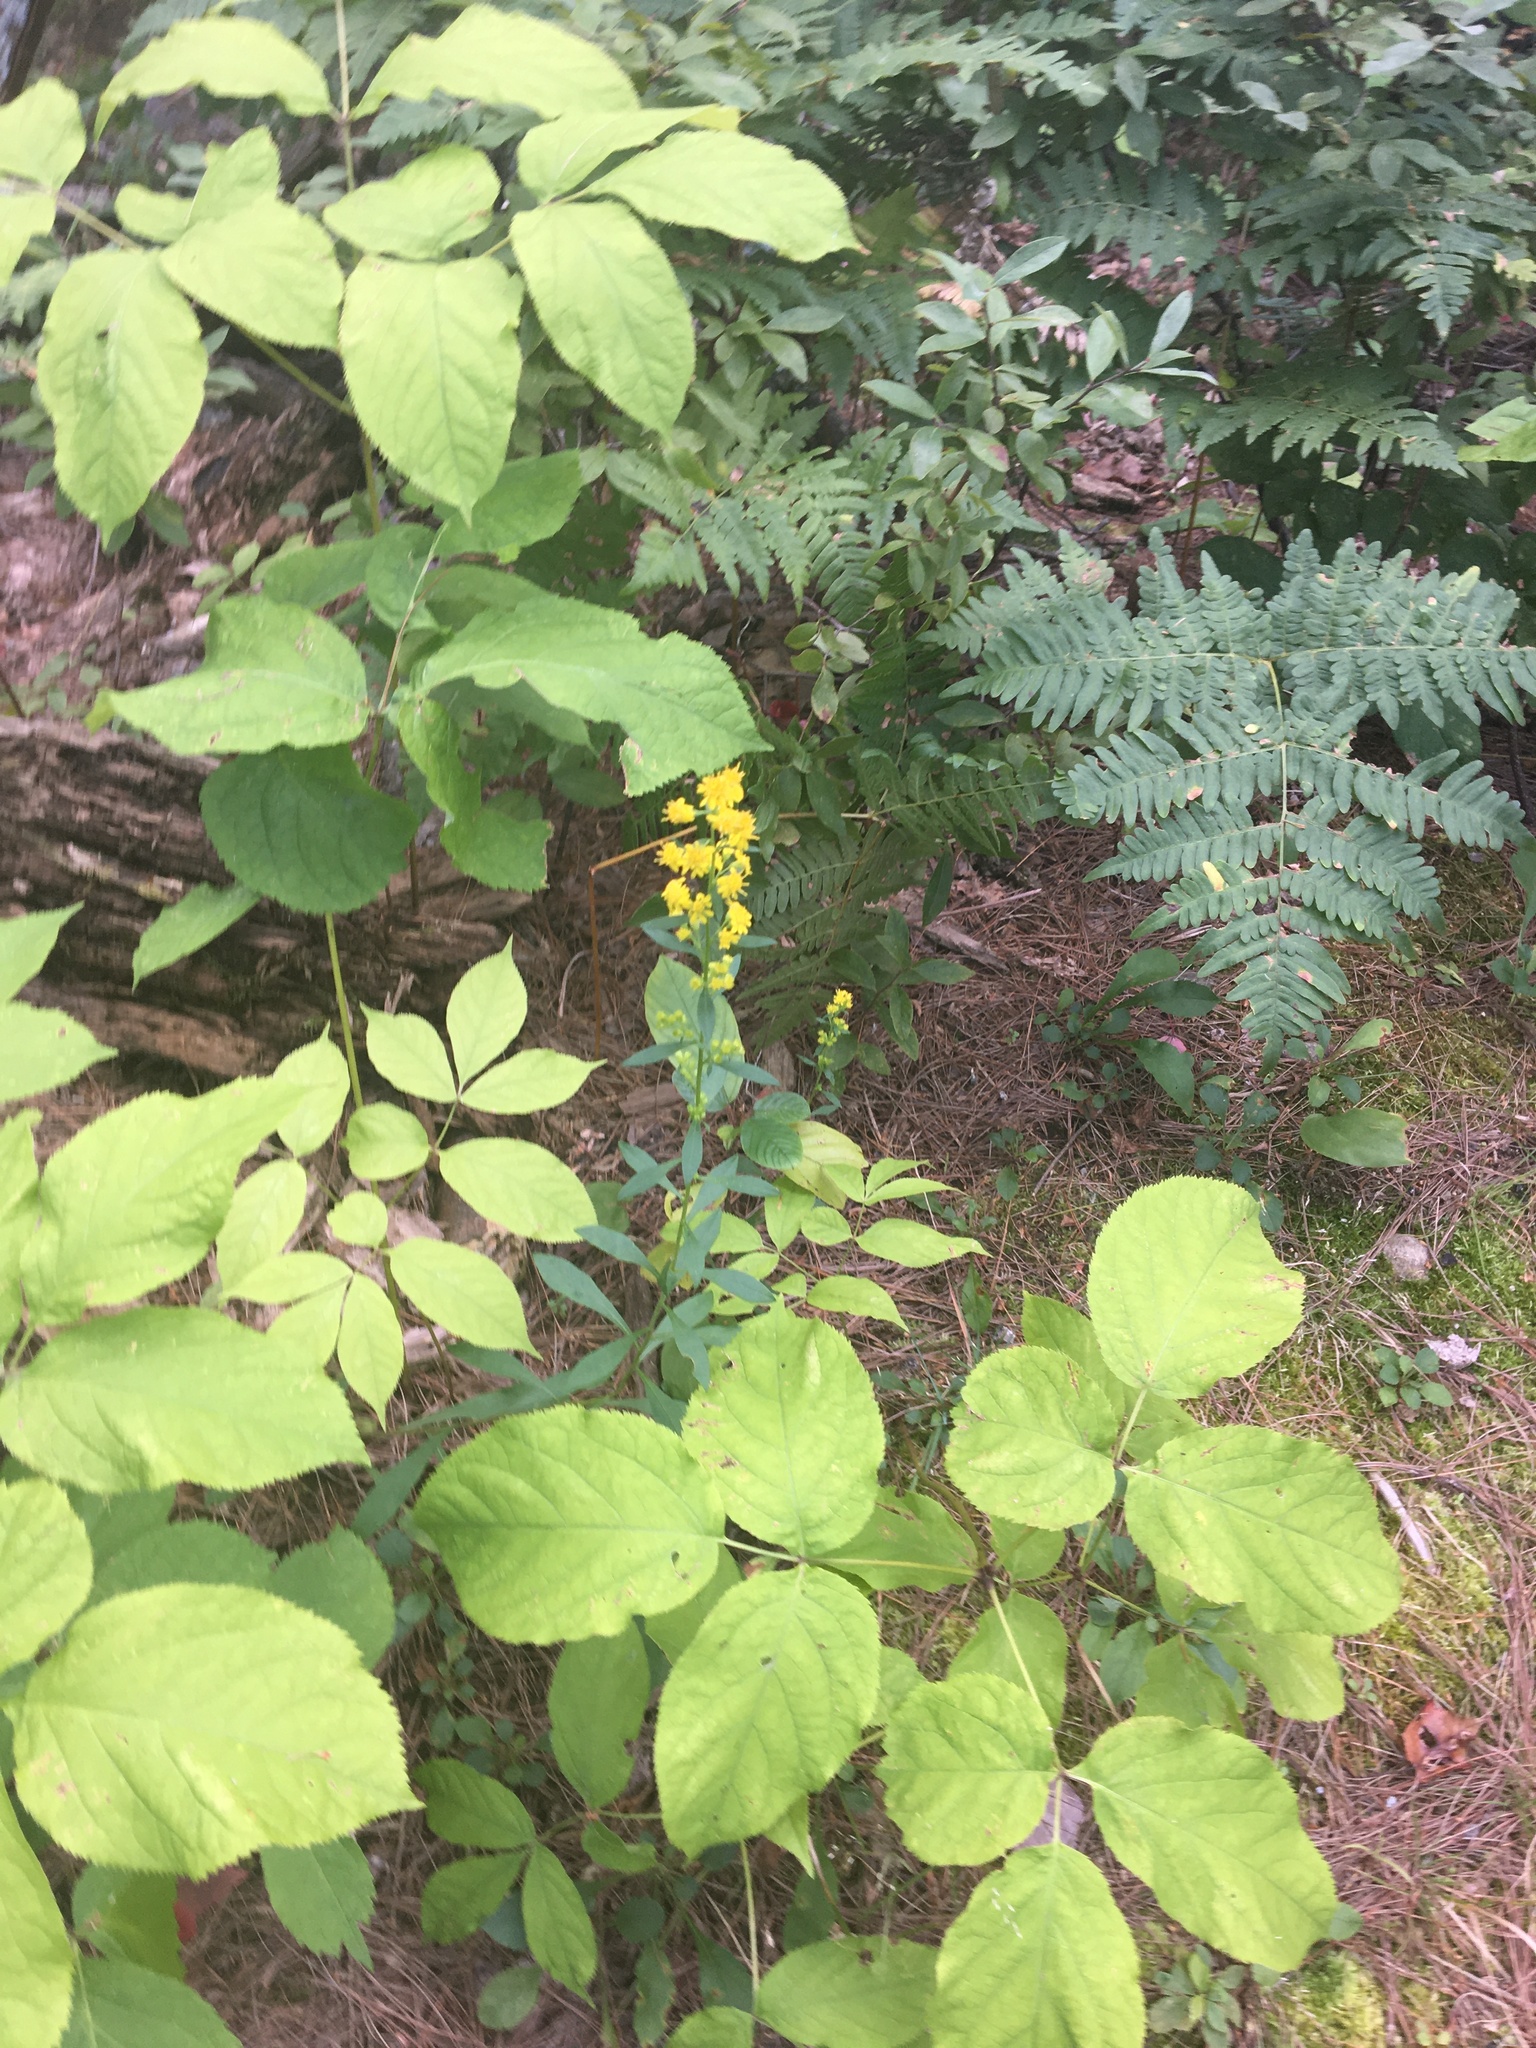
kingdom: Plantae
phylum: Tracheophyta
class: Polypodiopsida
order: Polypodiales
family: Dennstaedtiaceae
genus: Pteridium
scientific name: Pteridium aquilinum
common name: Bracken
